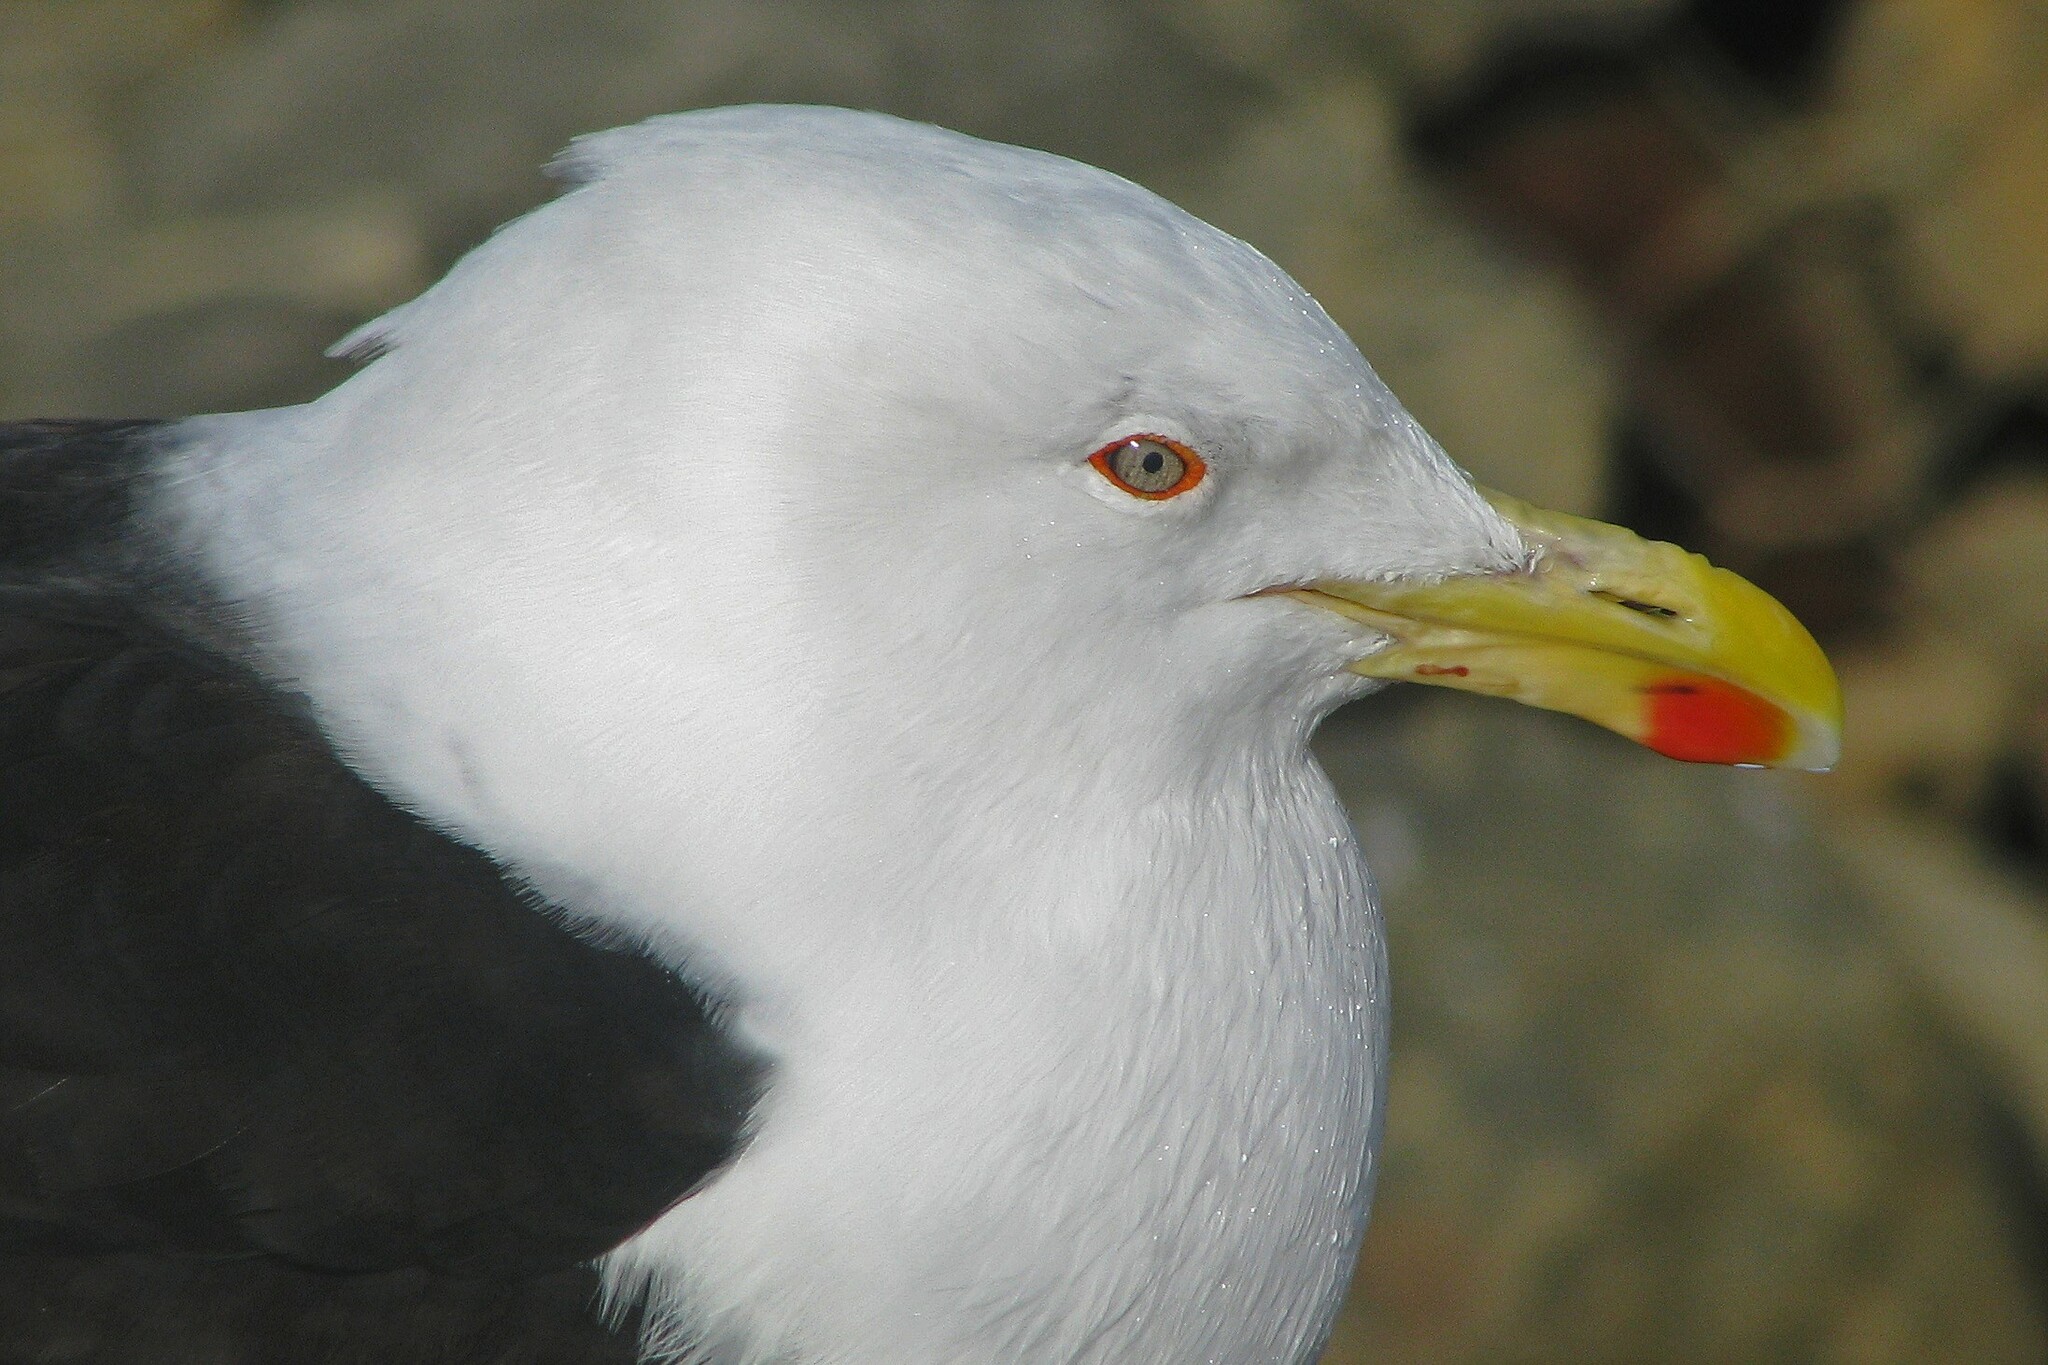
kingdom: Animalia
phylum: Chordata
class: Aves
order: Charadriiformes
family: Laridae
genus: Larus
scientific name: Larus dominicanus
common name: Kelp gull
